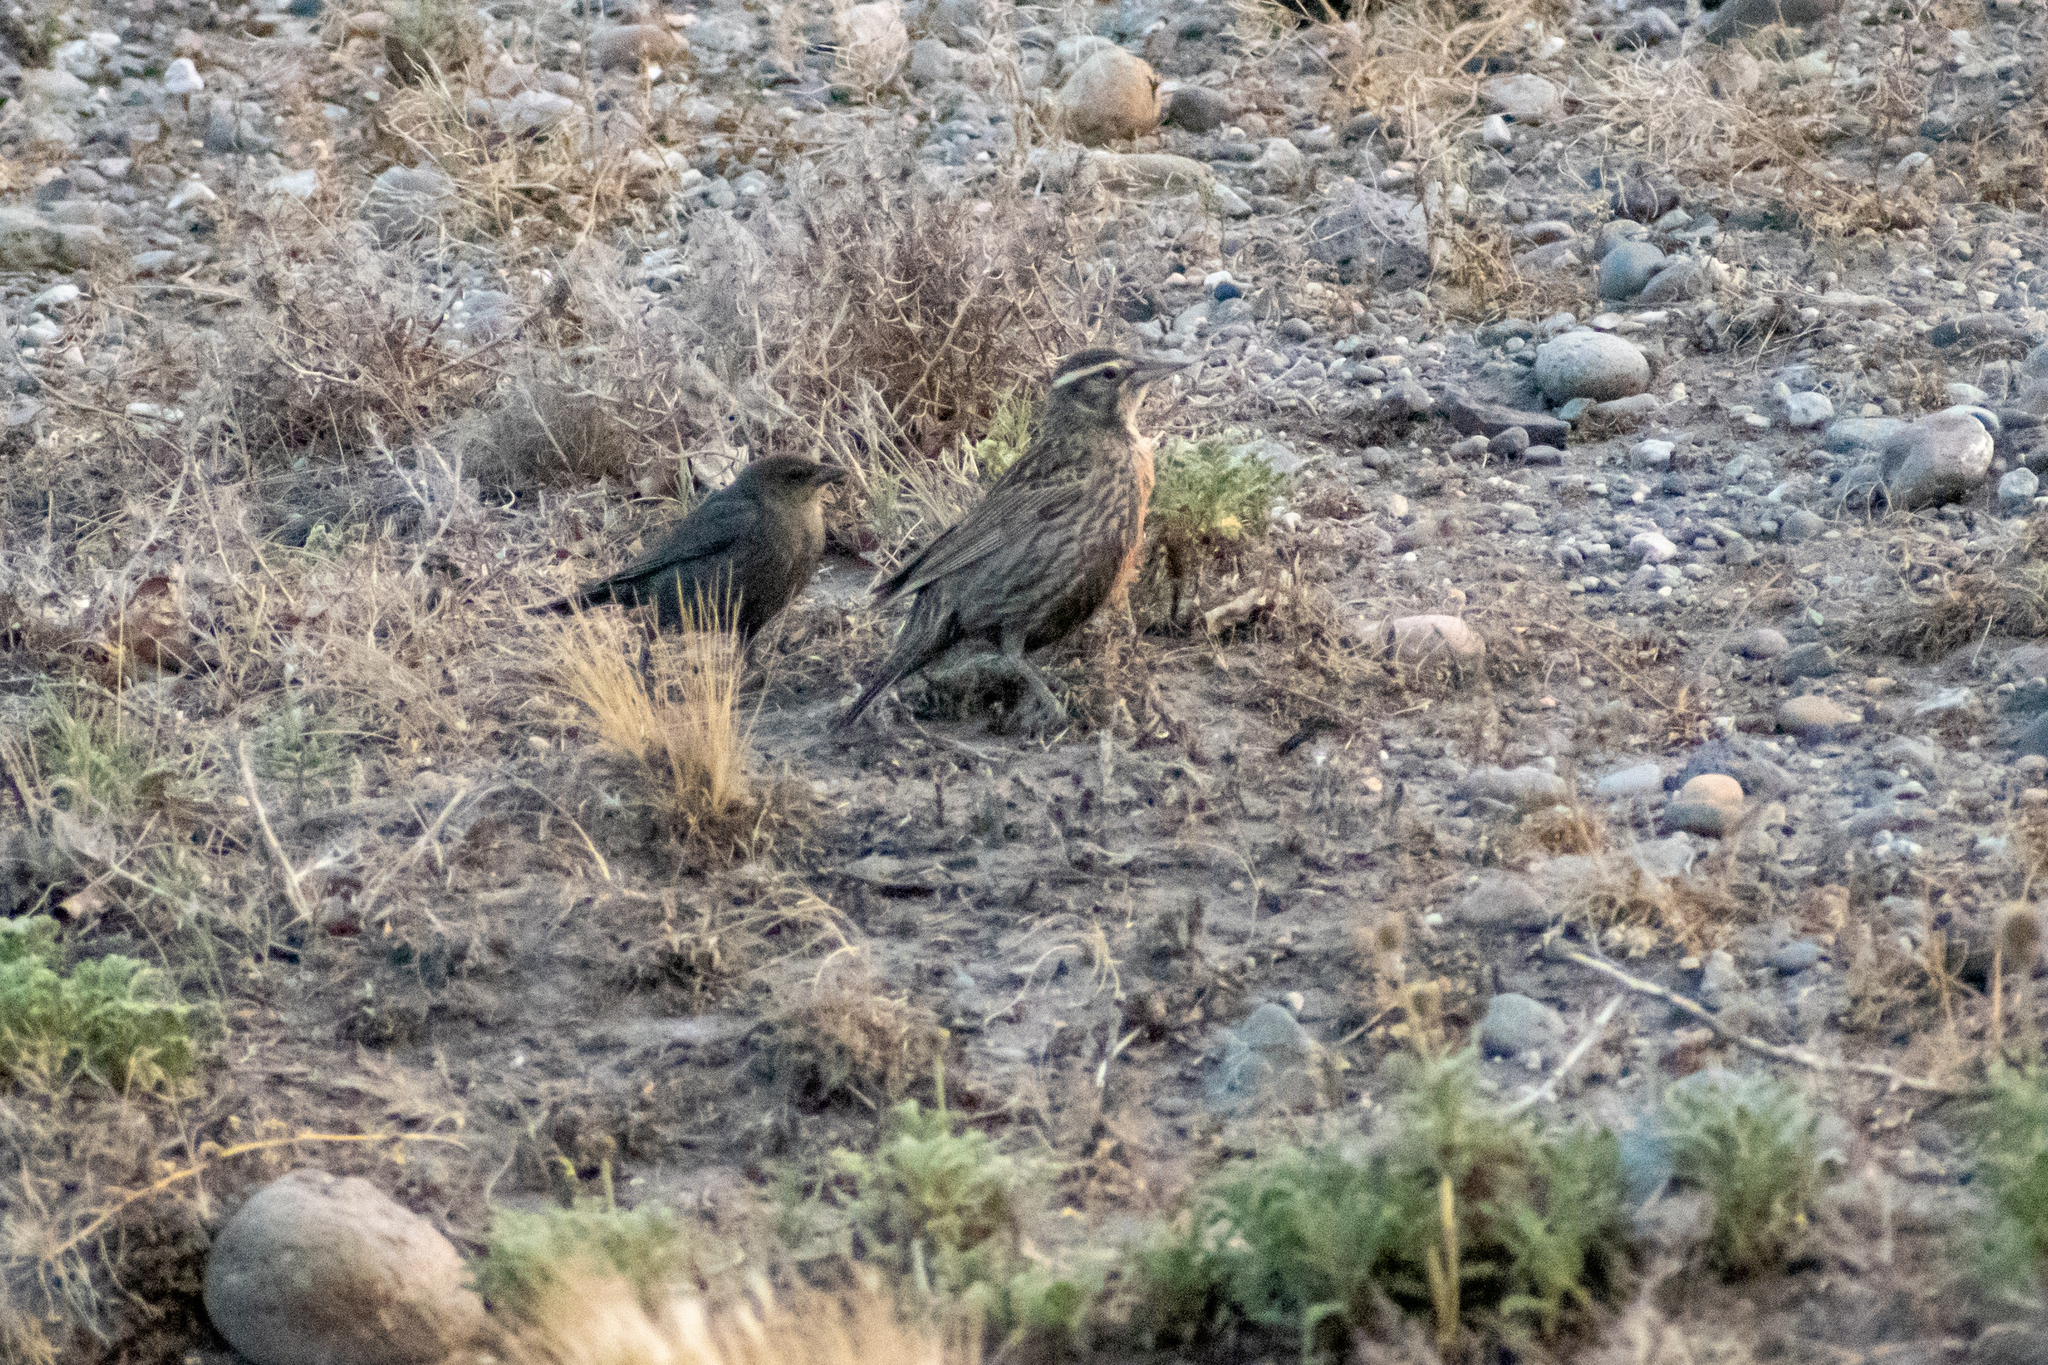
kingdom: Animalia
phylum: Chordata
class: Aves
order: Passeriformes
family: Icteridae
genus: Molothrus
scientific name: Molothrus bonariensis
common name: Shiny cowbird
